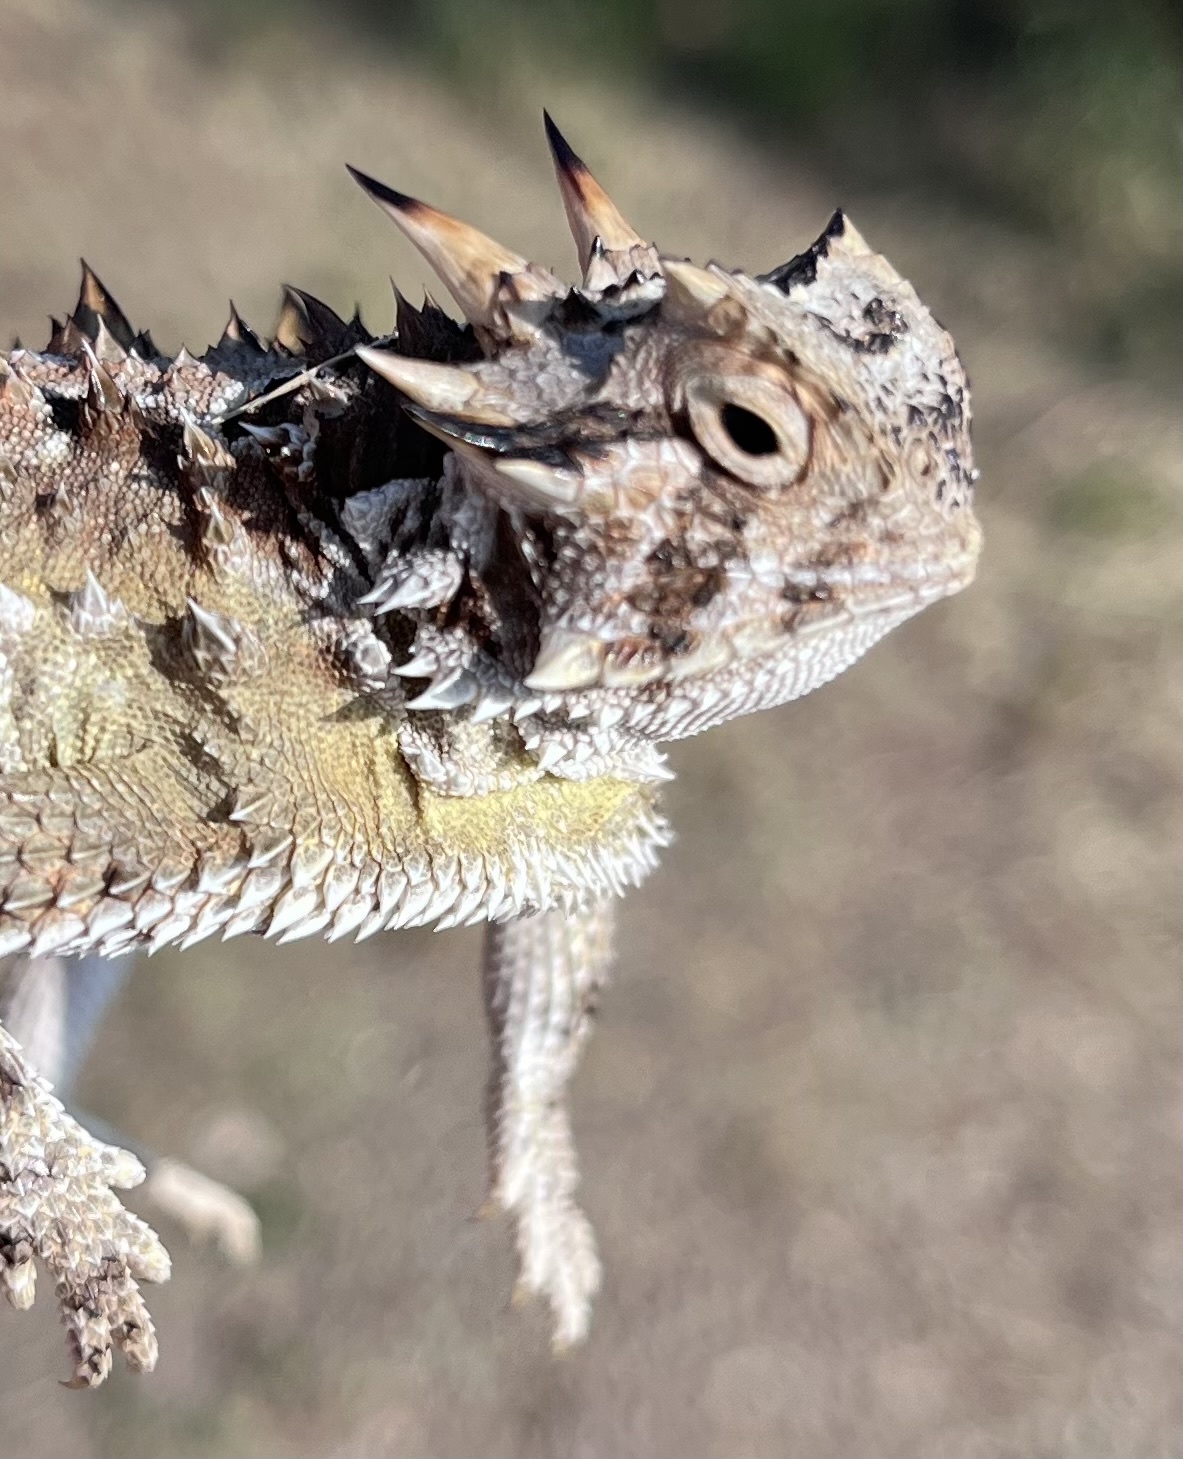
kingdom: Animalia
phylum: Chordata
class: Squamata
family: Phrynosomatidae
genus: Phrynosoma
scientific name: Phrynosoma cornutum
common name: Texas horned lizard
